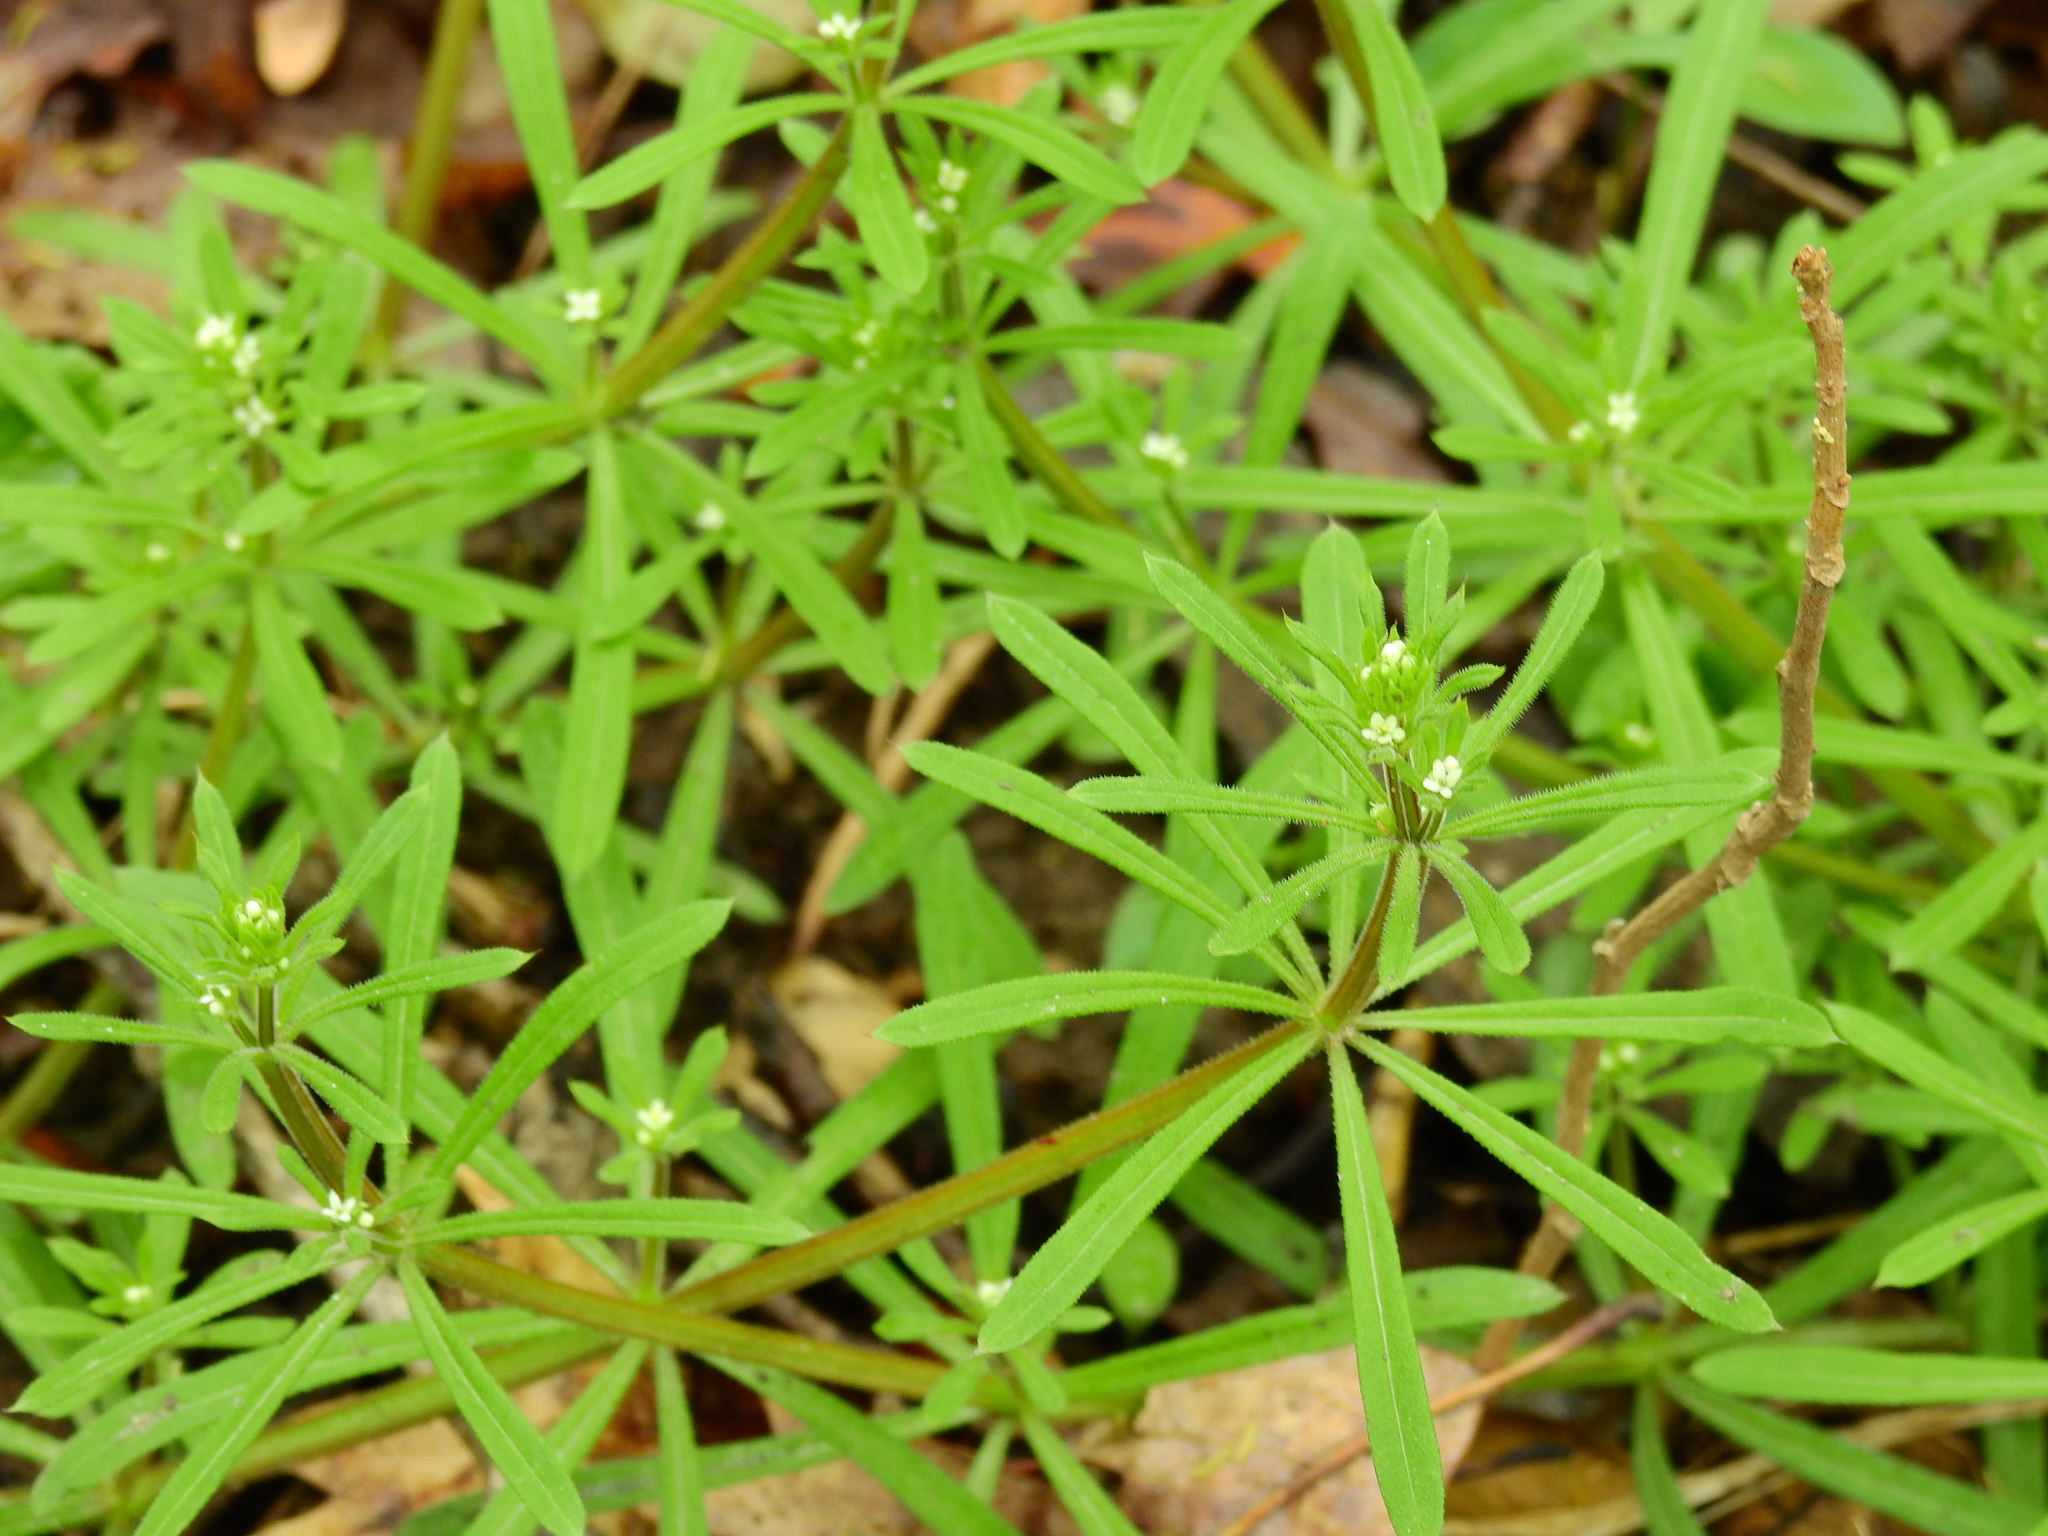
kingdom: Plantae
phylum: Tracheophyta
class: Magnoliopsida
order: Gentianales
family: Rubiaceae
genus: Galium
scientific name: Galium aparine
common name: Cleavers
